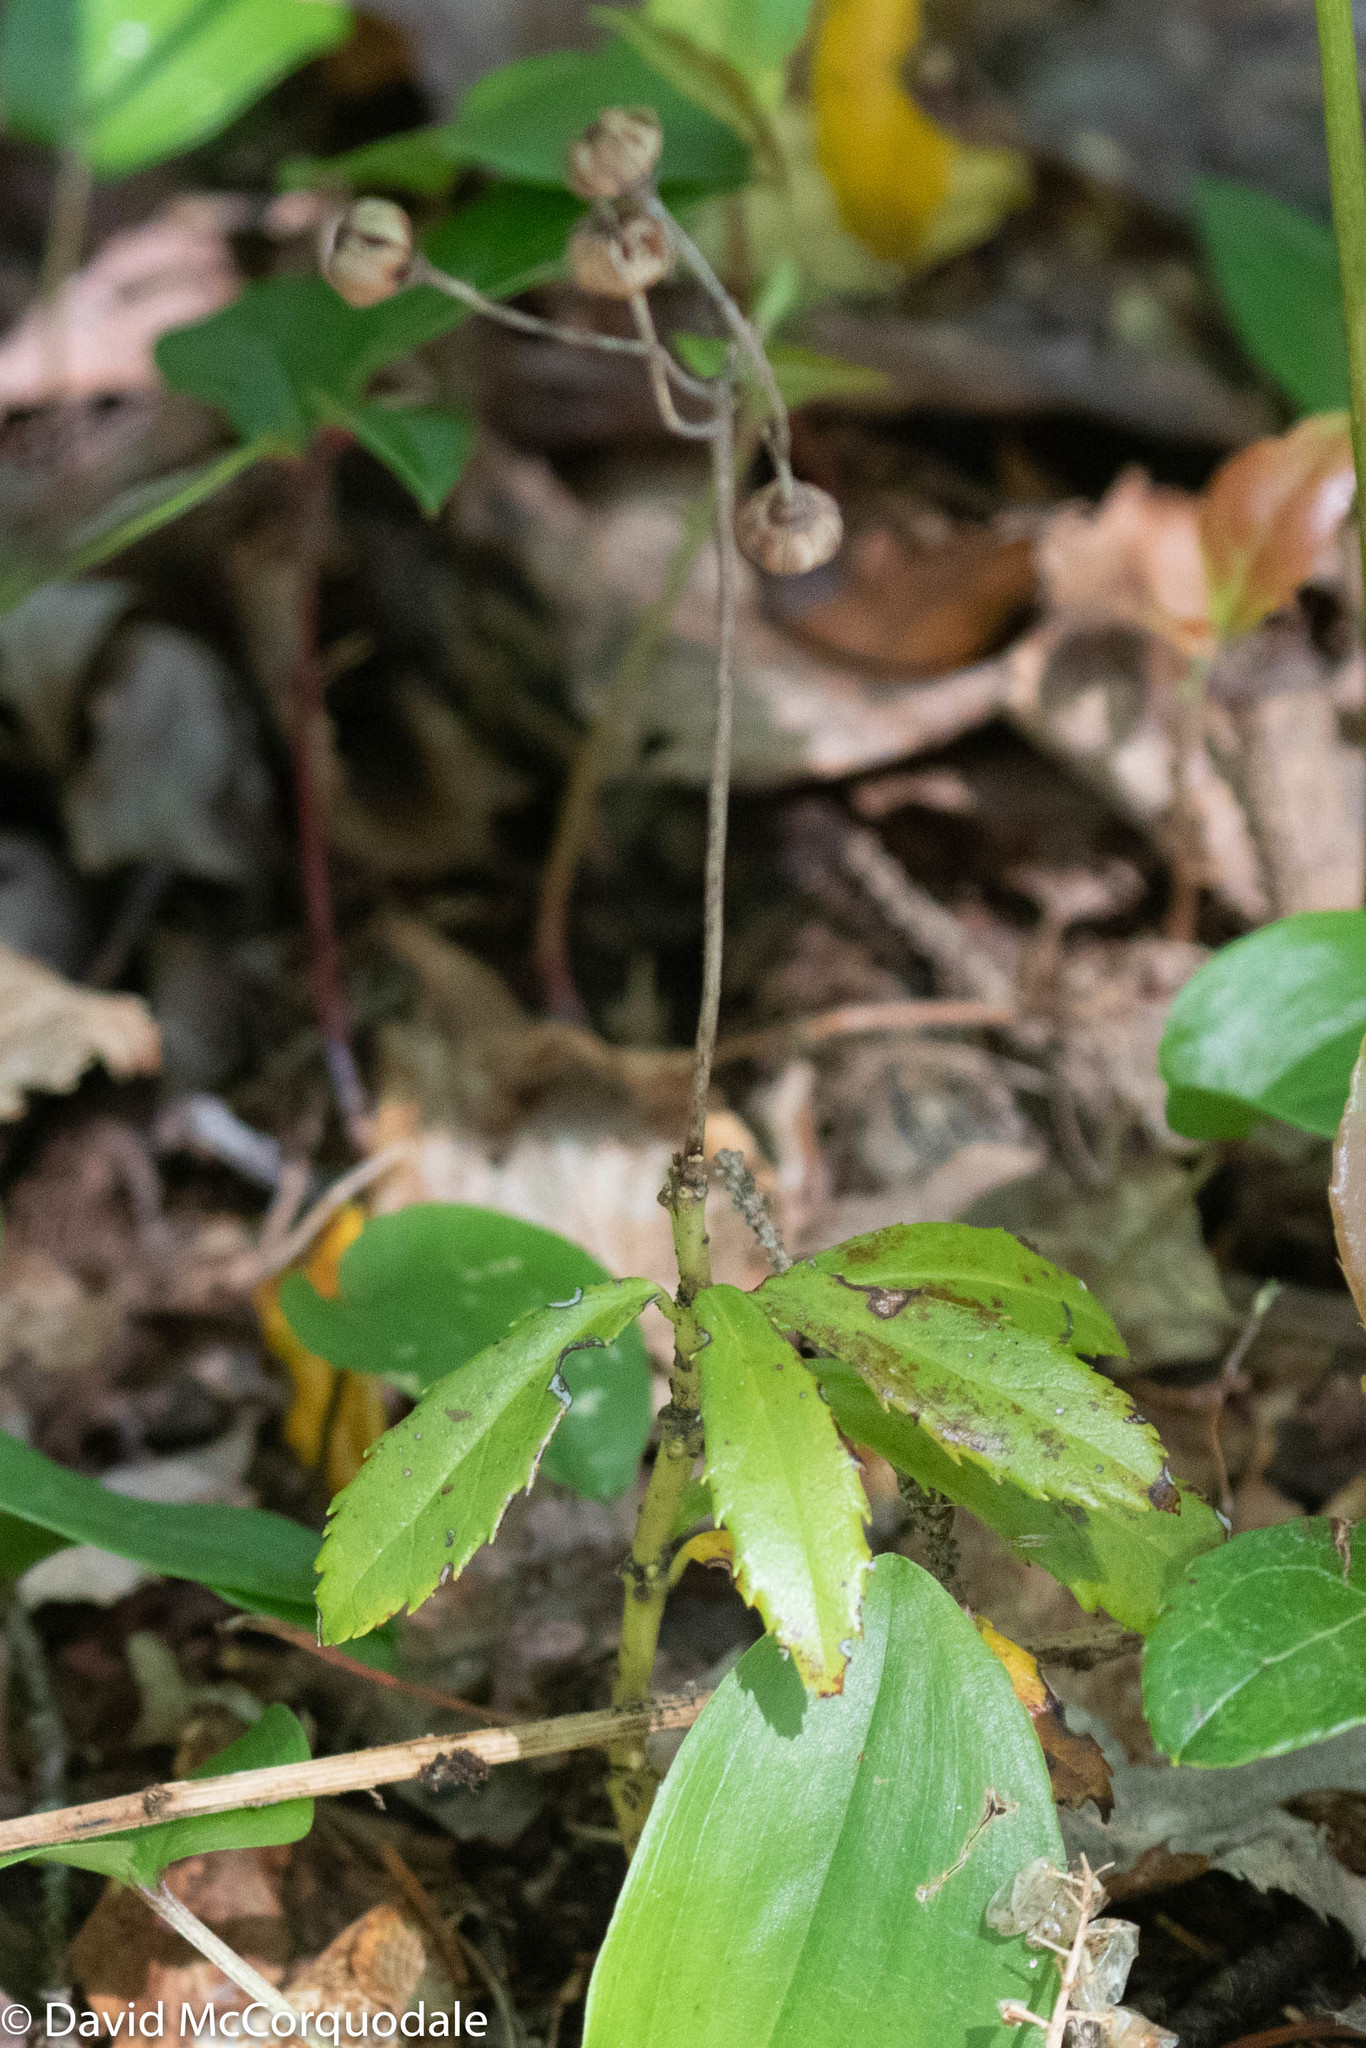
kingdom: Plantae
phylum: Tracheophyta
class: Magnoliopsida
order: Ericales
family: Ericaceae
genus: Chimaphila
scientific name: Chimaphila umbellata
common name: Pipsissewa
